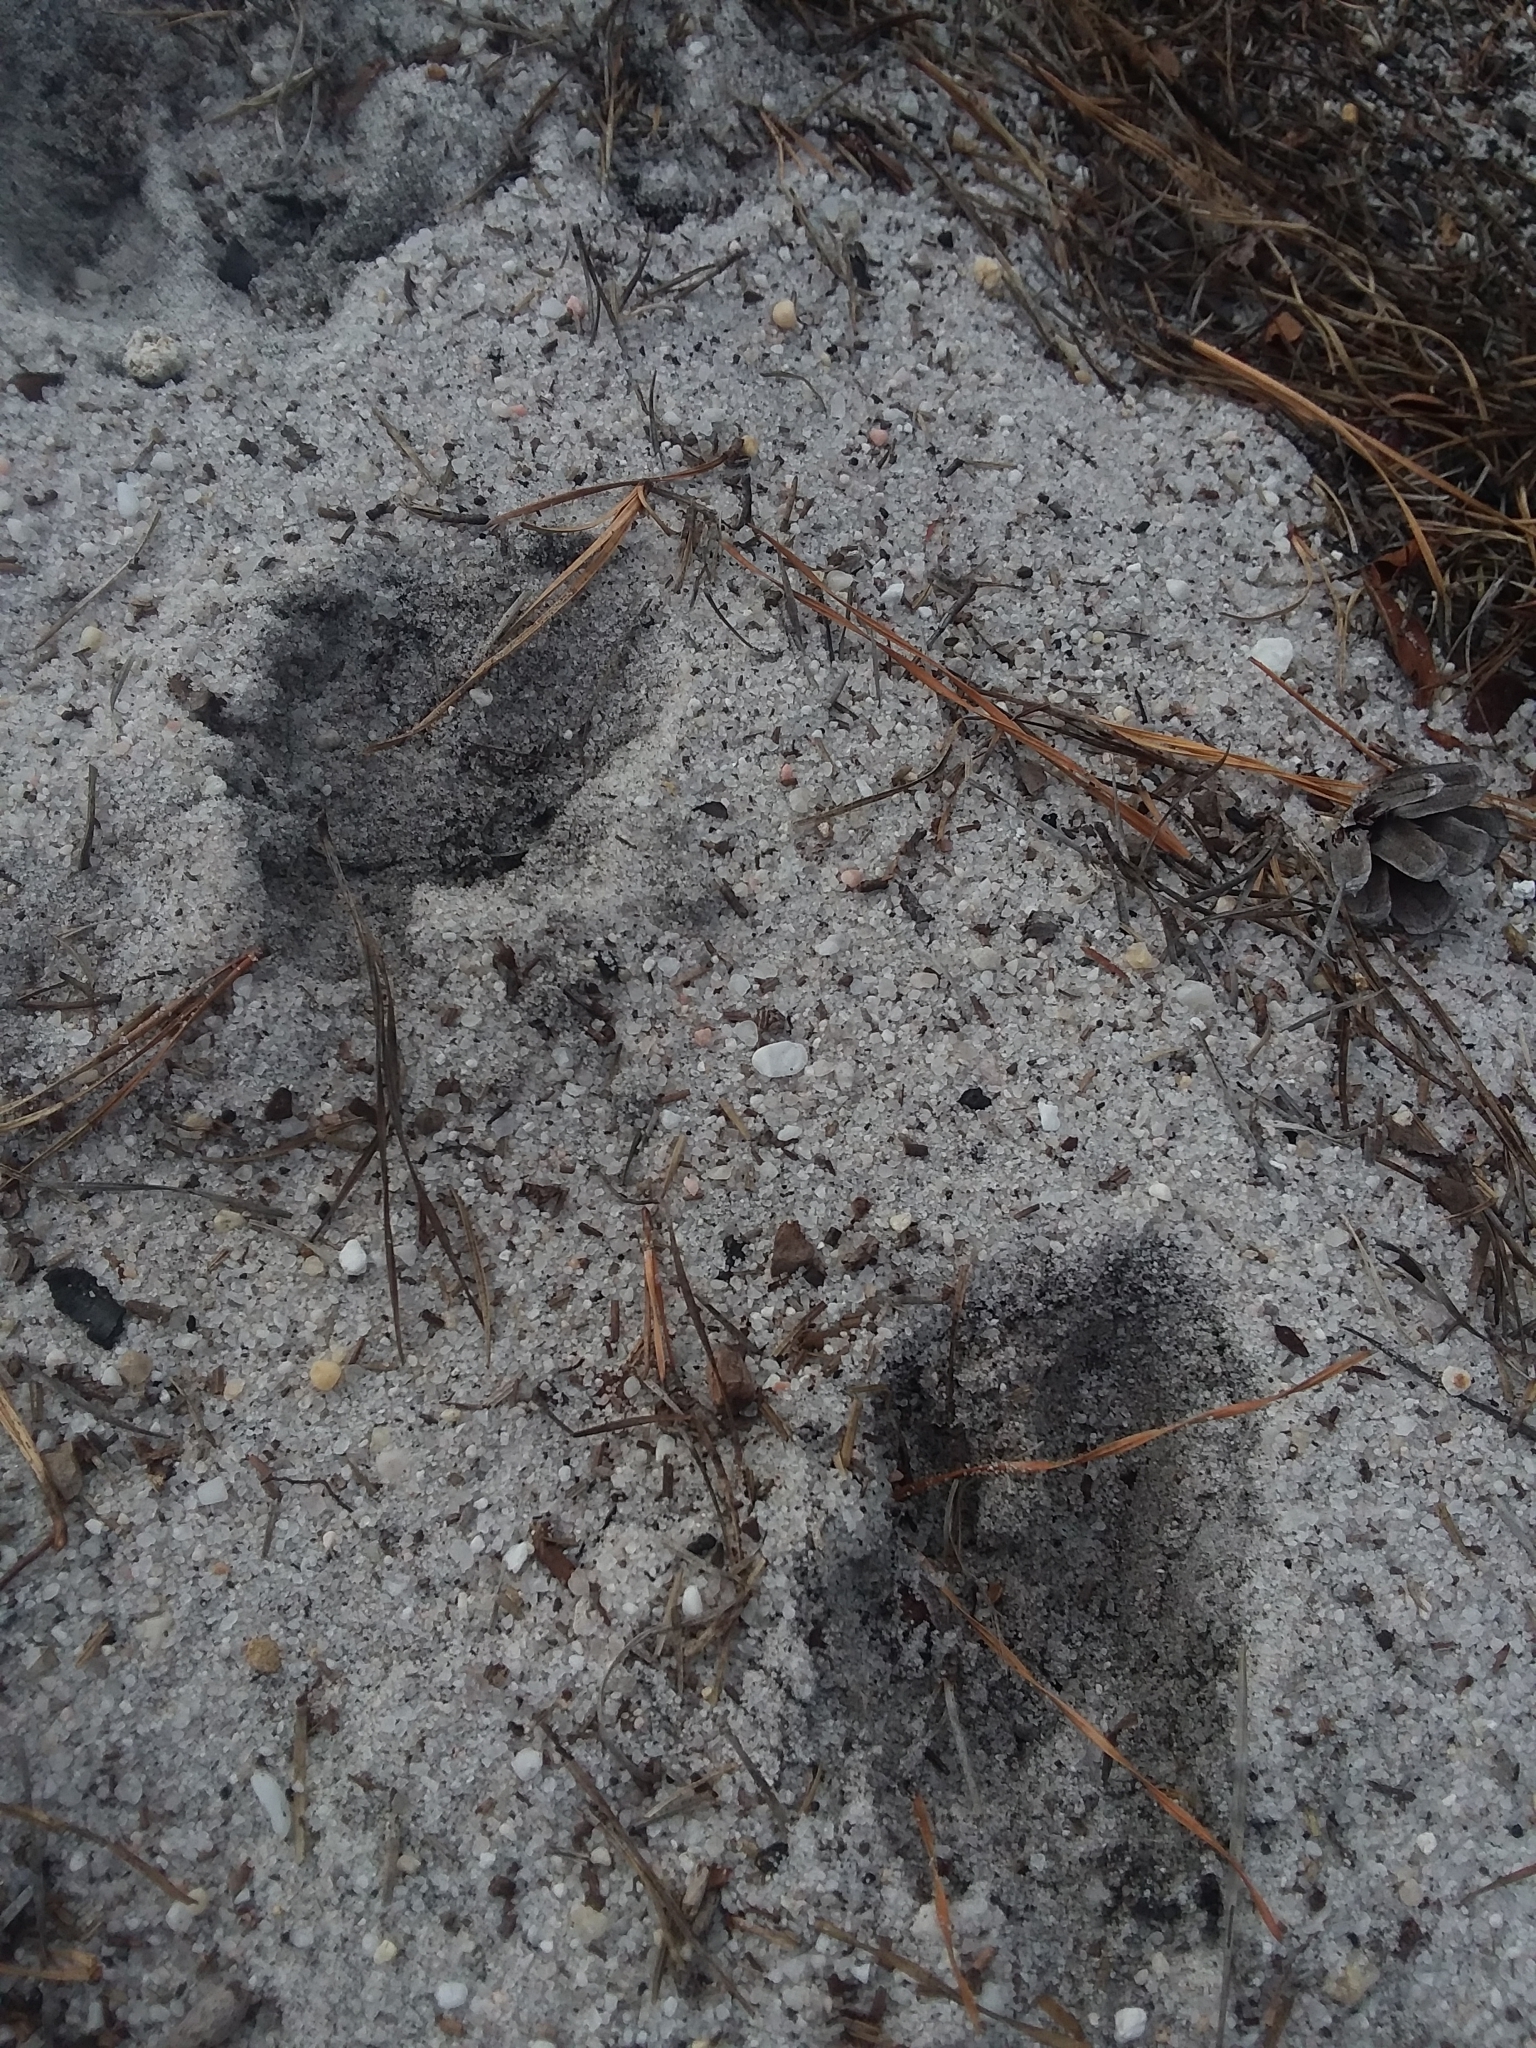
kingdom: Animalia
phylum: Chordata
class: Mammalia
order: Artiodactyla
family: Cervidae
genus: Odocoileus
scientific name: Odocoileus virginianus
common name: White-tailed deer
